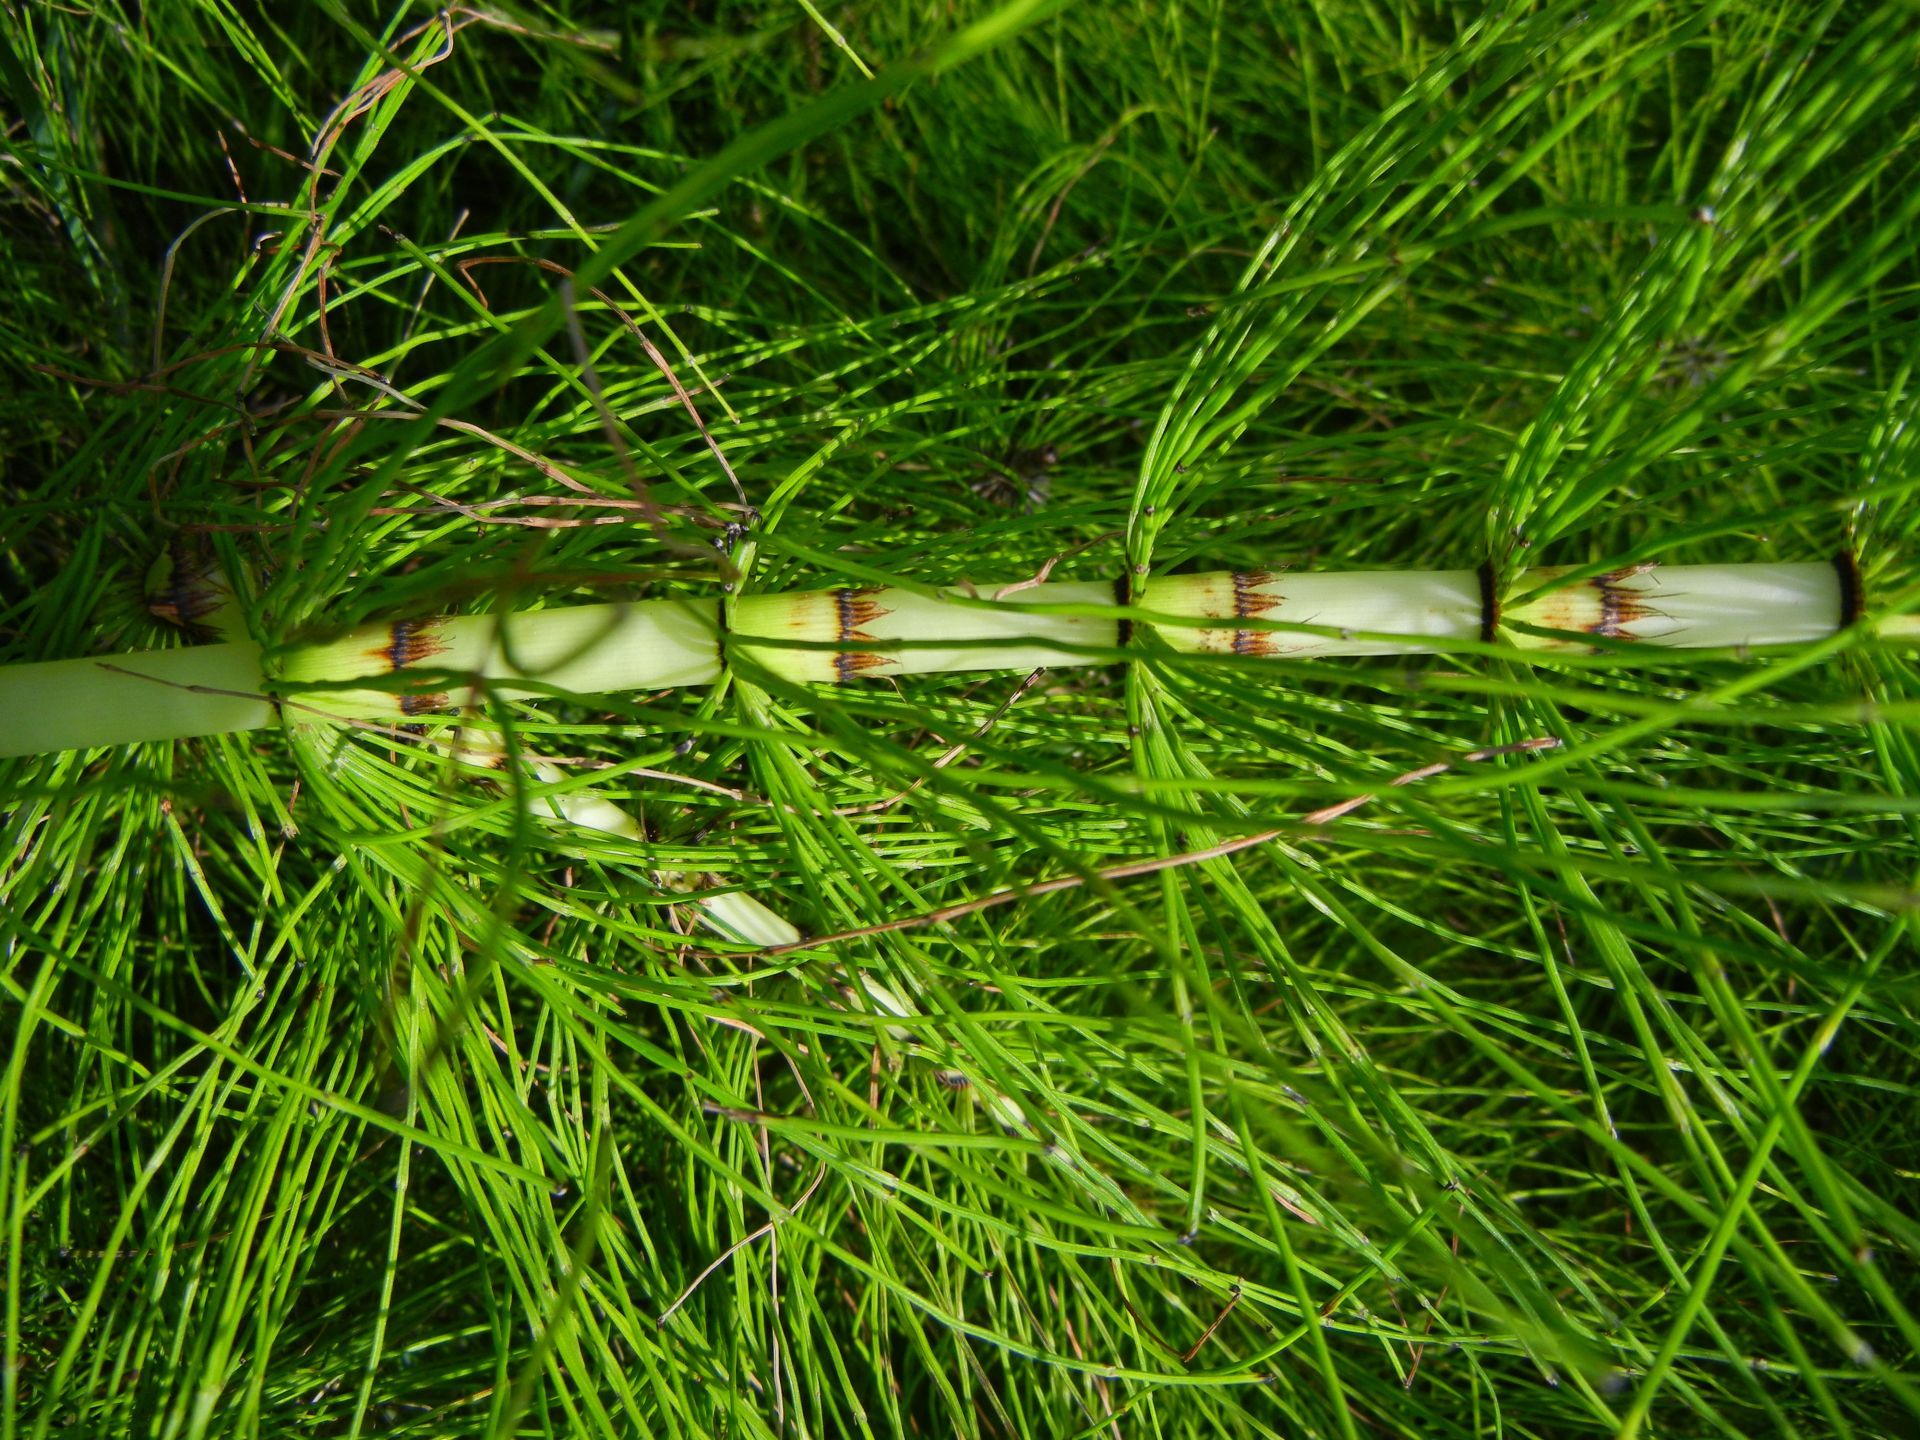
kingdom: Plantae
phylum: Tracheophyta
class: Polypodiopsida
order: Equisetales
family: Equisetaceae
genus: Equisetum
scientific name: Equisetum telmateia
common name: Great horsetail
